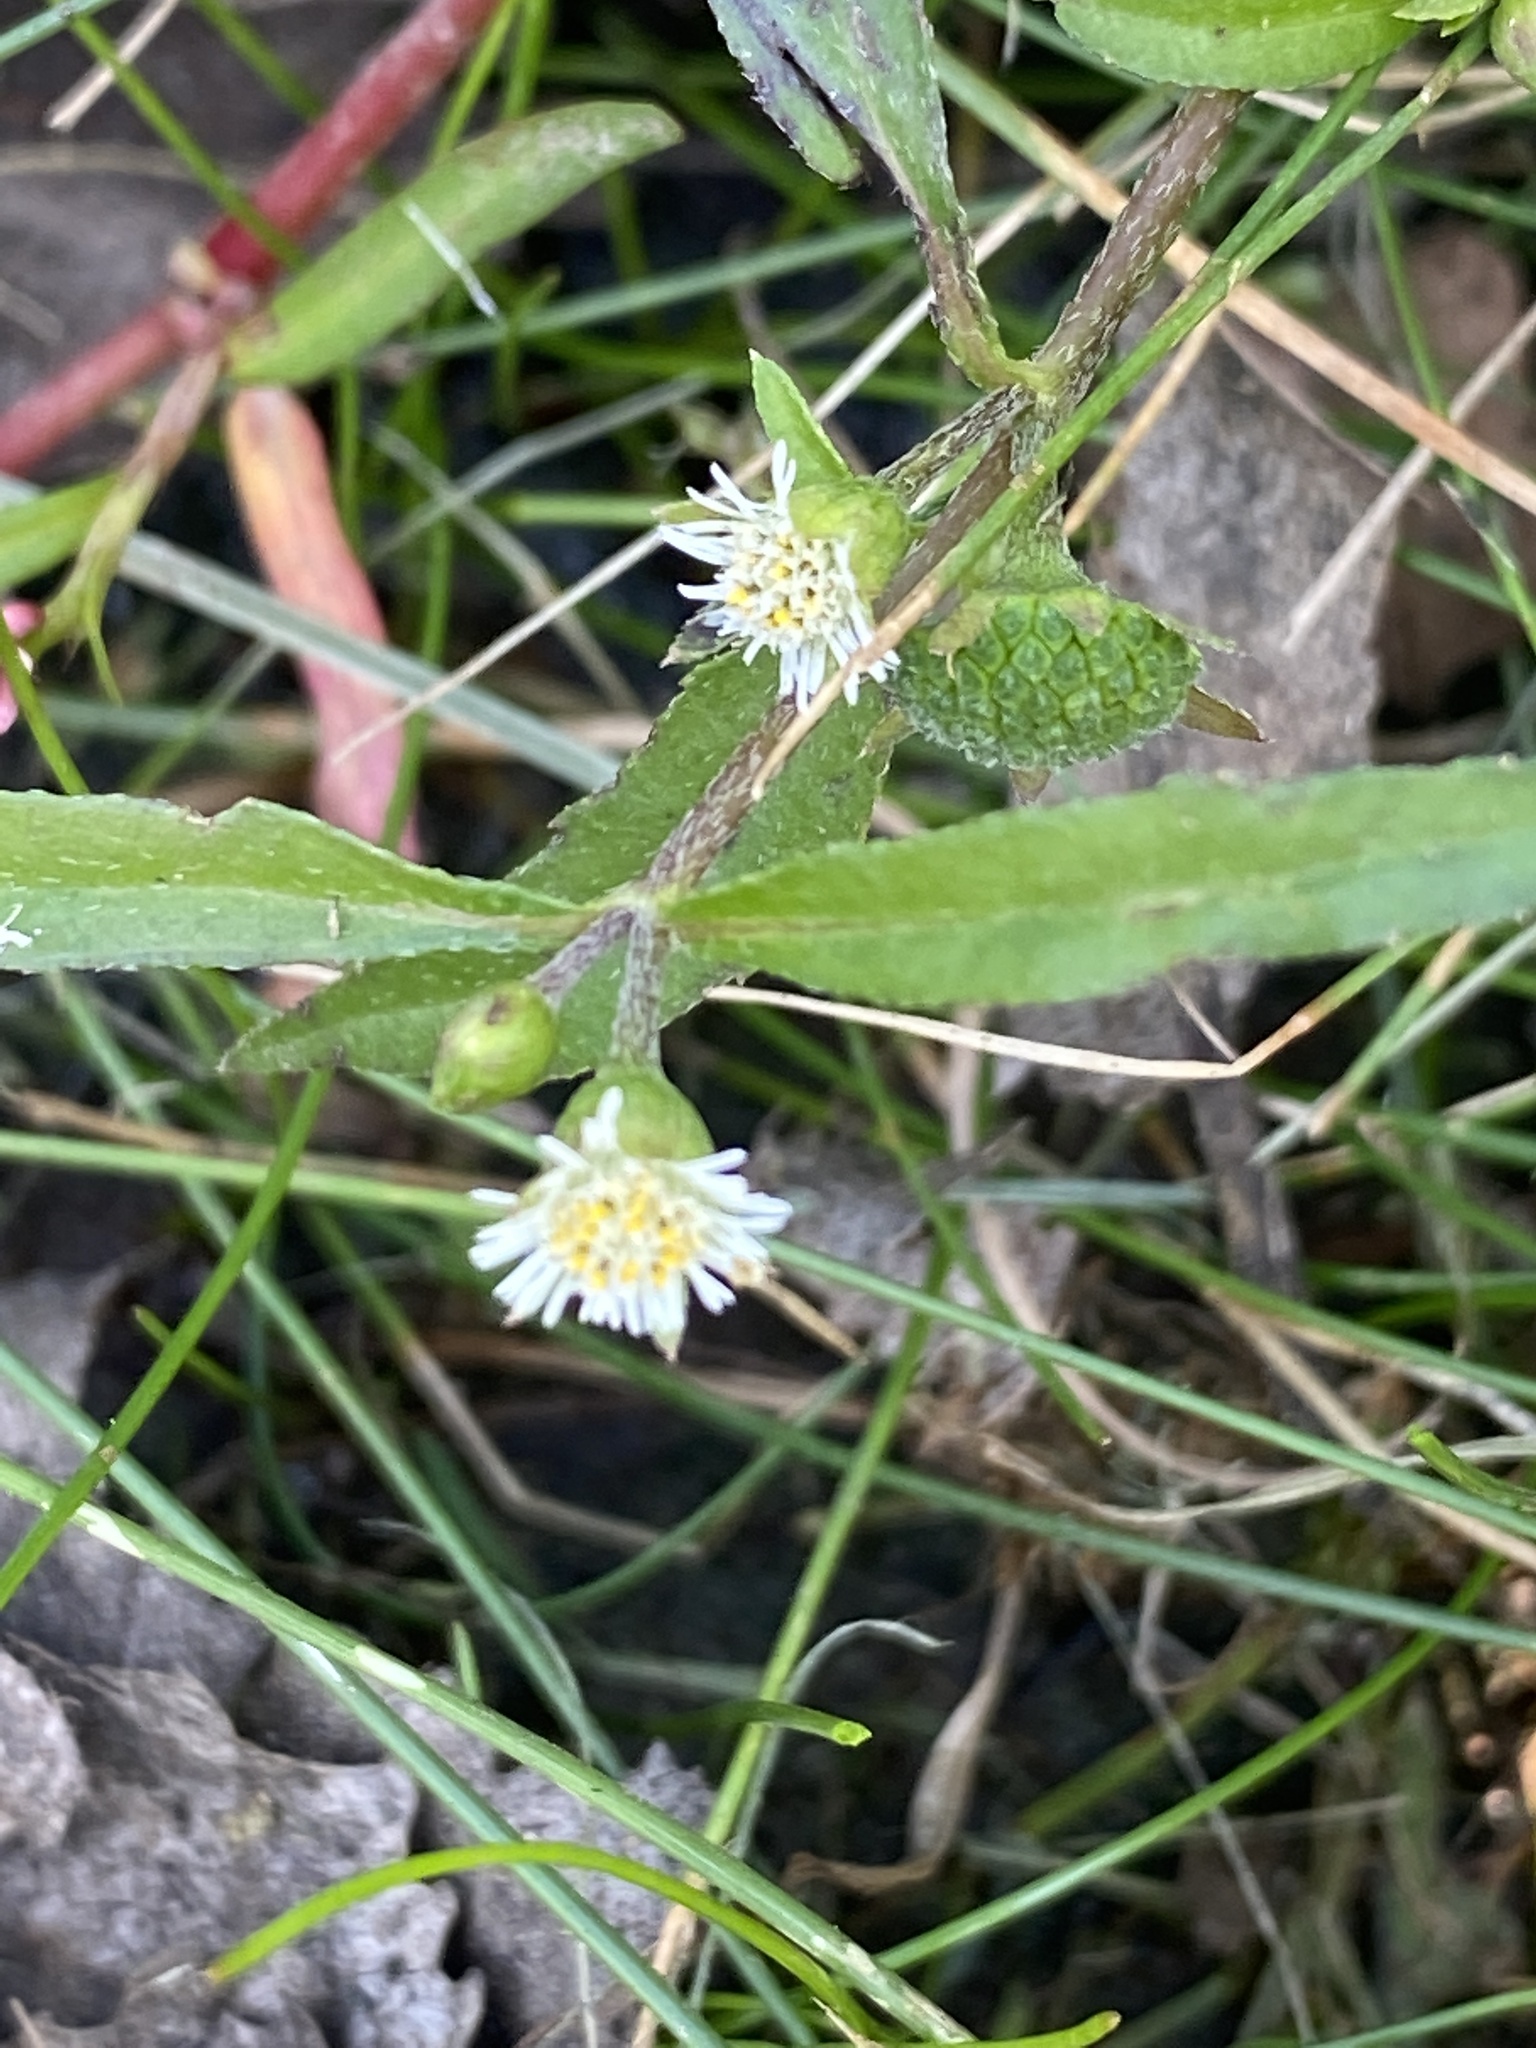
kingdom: Plantae
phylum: Tracheophyta
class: Magnoliopsida
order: Asterales
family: Asteraceae
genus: Eclipta
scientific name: Eclipta prostrata
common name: False daisy
